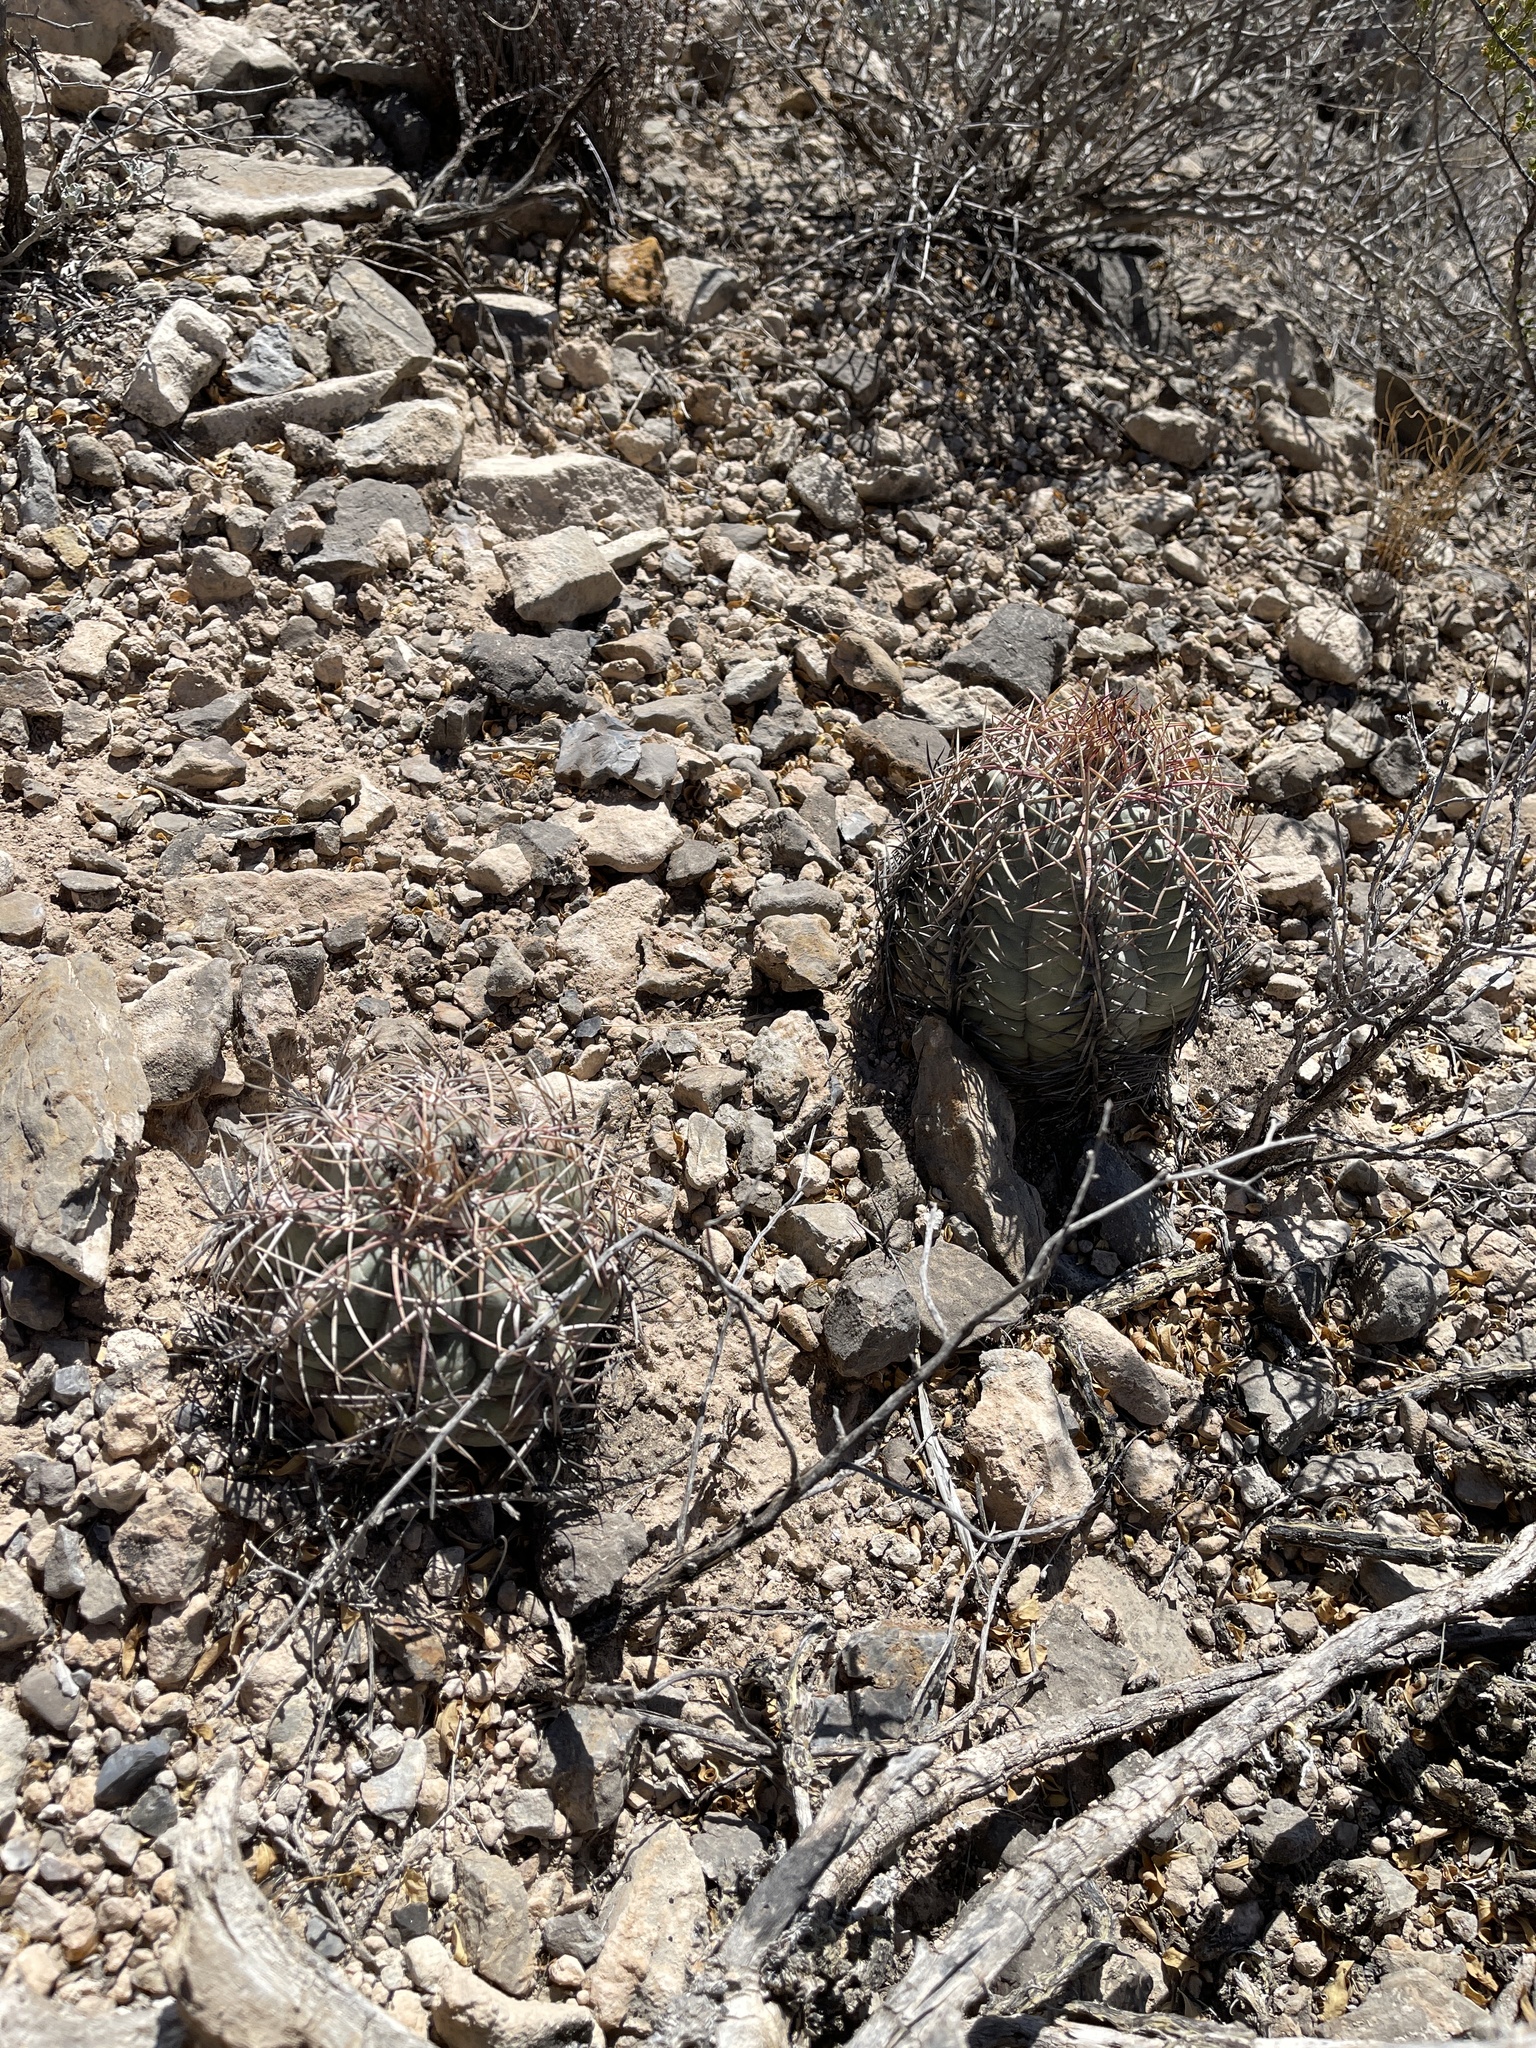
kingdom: Plantae
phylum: Tracheophyta
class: Magnoliopsida
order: Caryophyllales
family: Cactaceae
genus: Echinocactus
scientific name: Echinocactus horizonthalonius
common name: Devilshead
